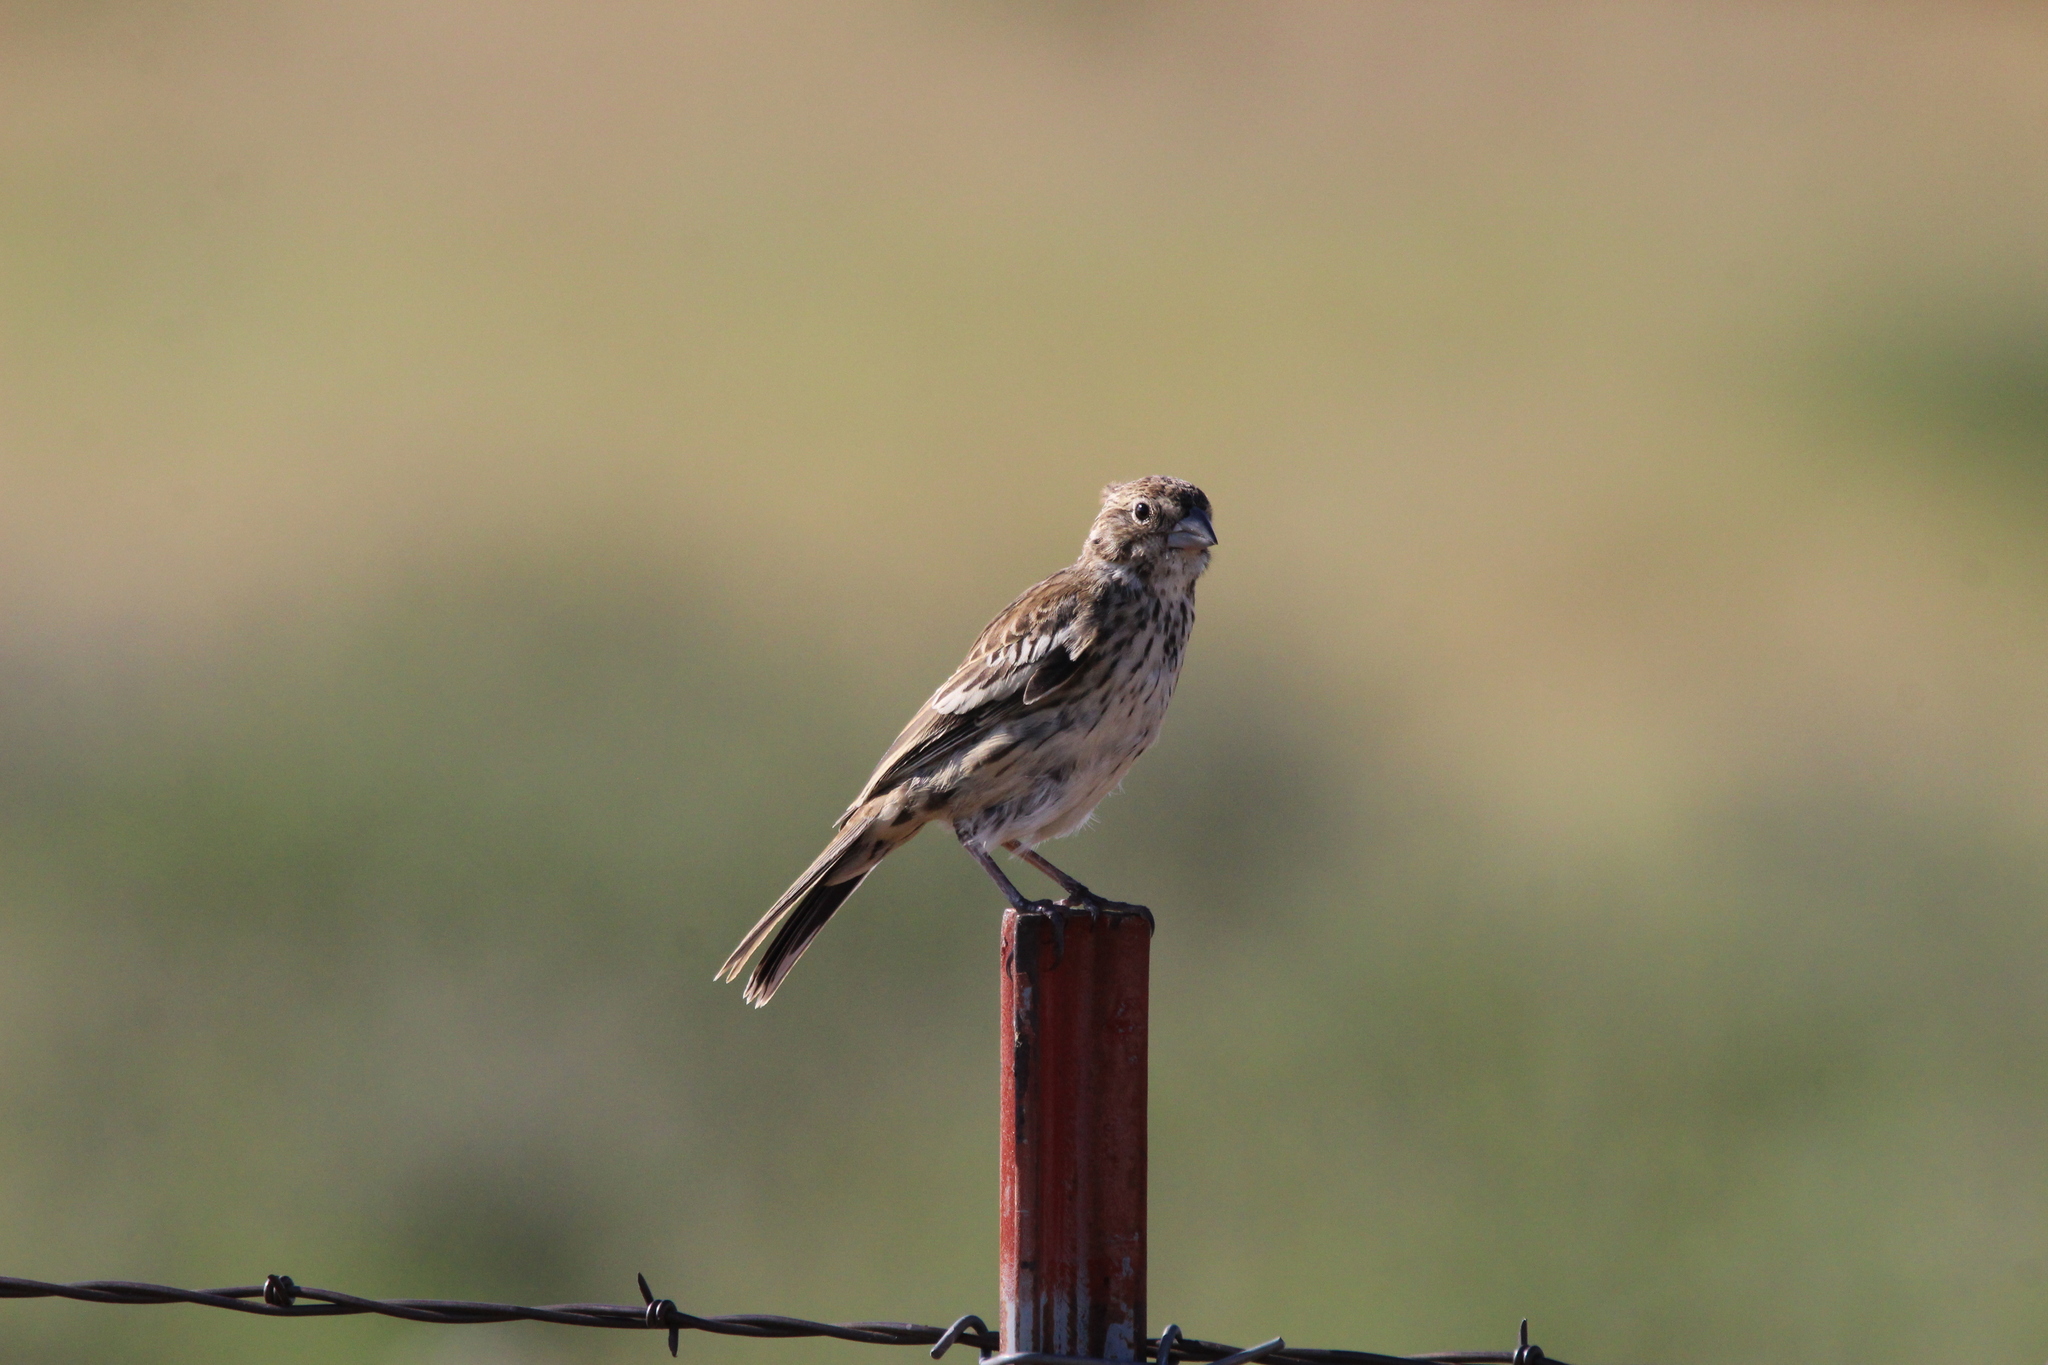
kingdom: Animalia
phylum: Chordata
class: Aves
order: Passeriformes
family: Passerellidae
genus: Calamospiza
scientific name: Calamospiza melanocorys
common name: Lark bunting
